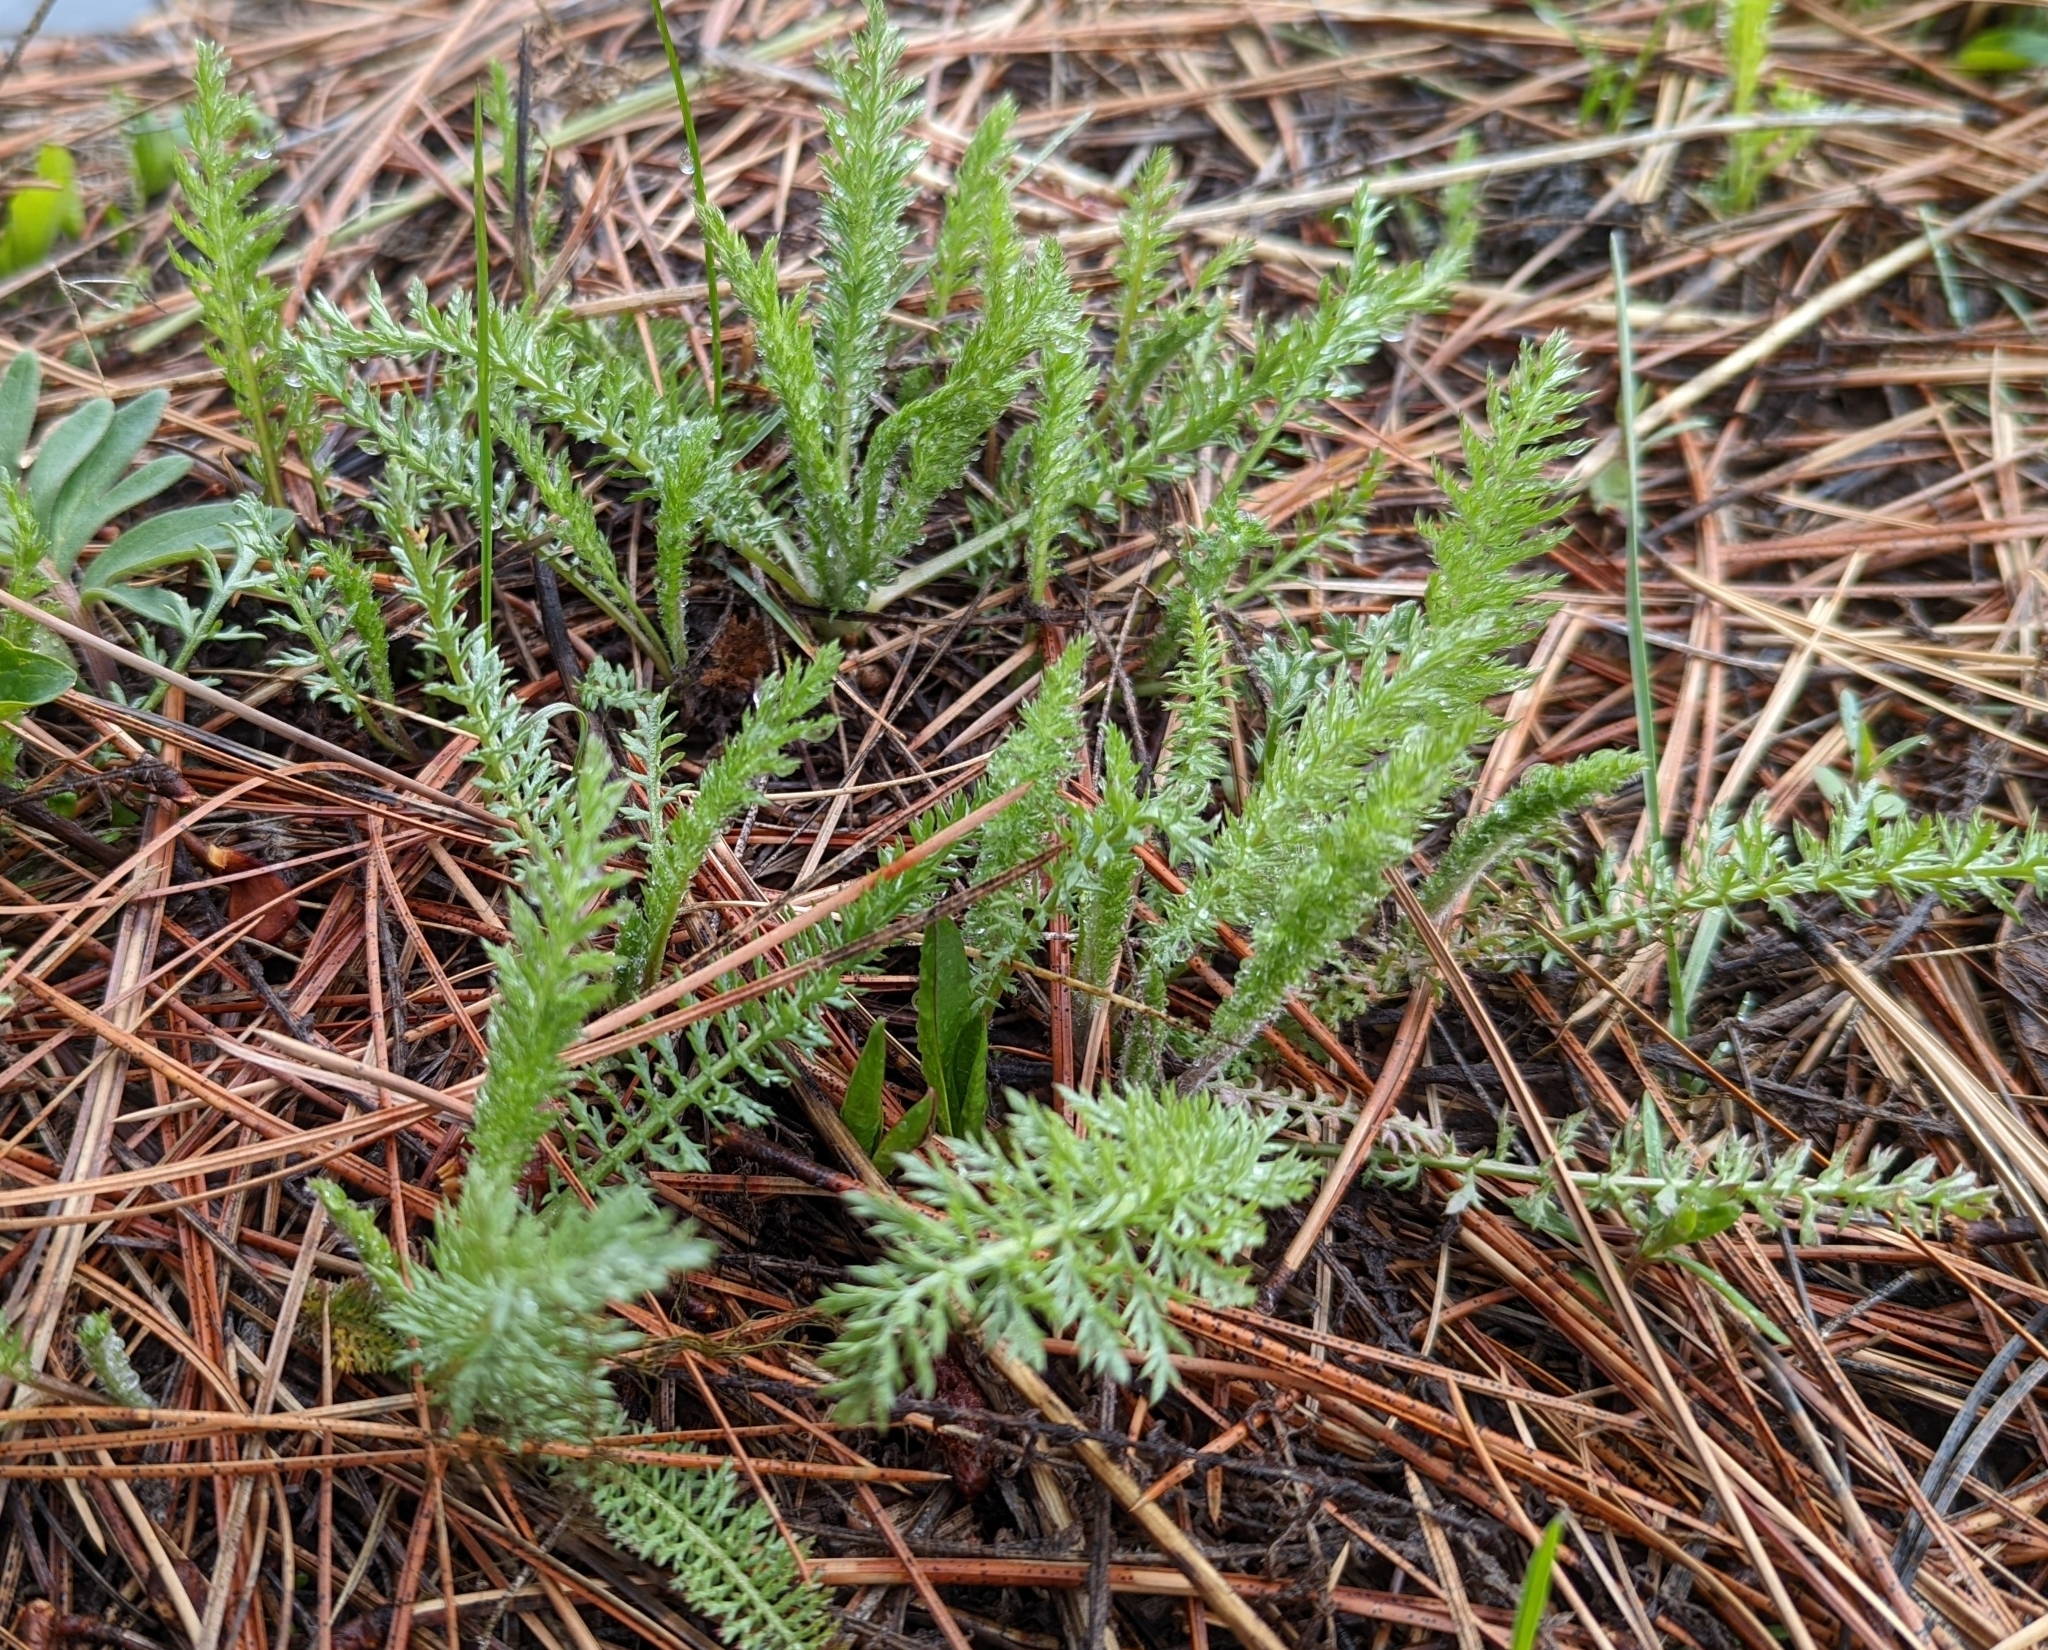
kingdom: Plantae
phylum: Tracheophyta
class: Magnoliopsida
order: Asterales
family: Asteraceae
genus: Achillea
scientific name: Achillea millefolium
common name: Yarrow
